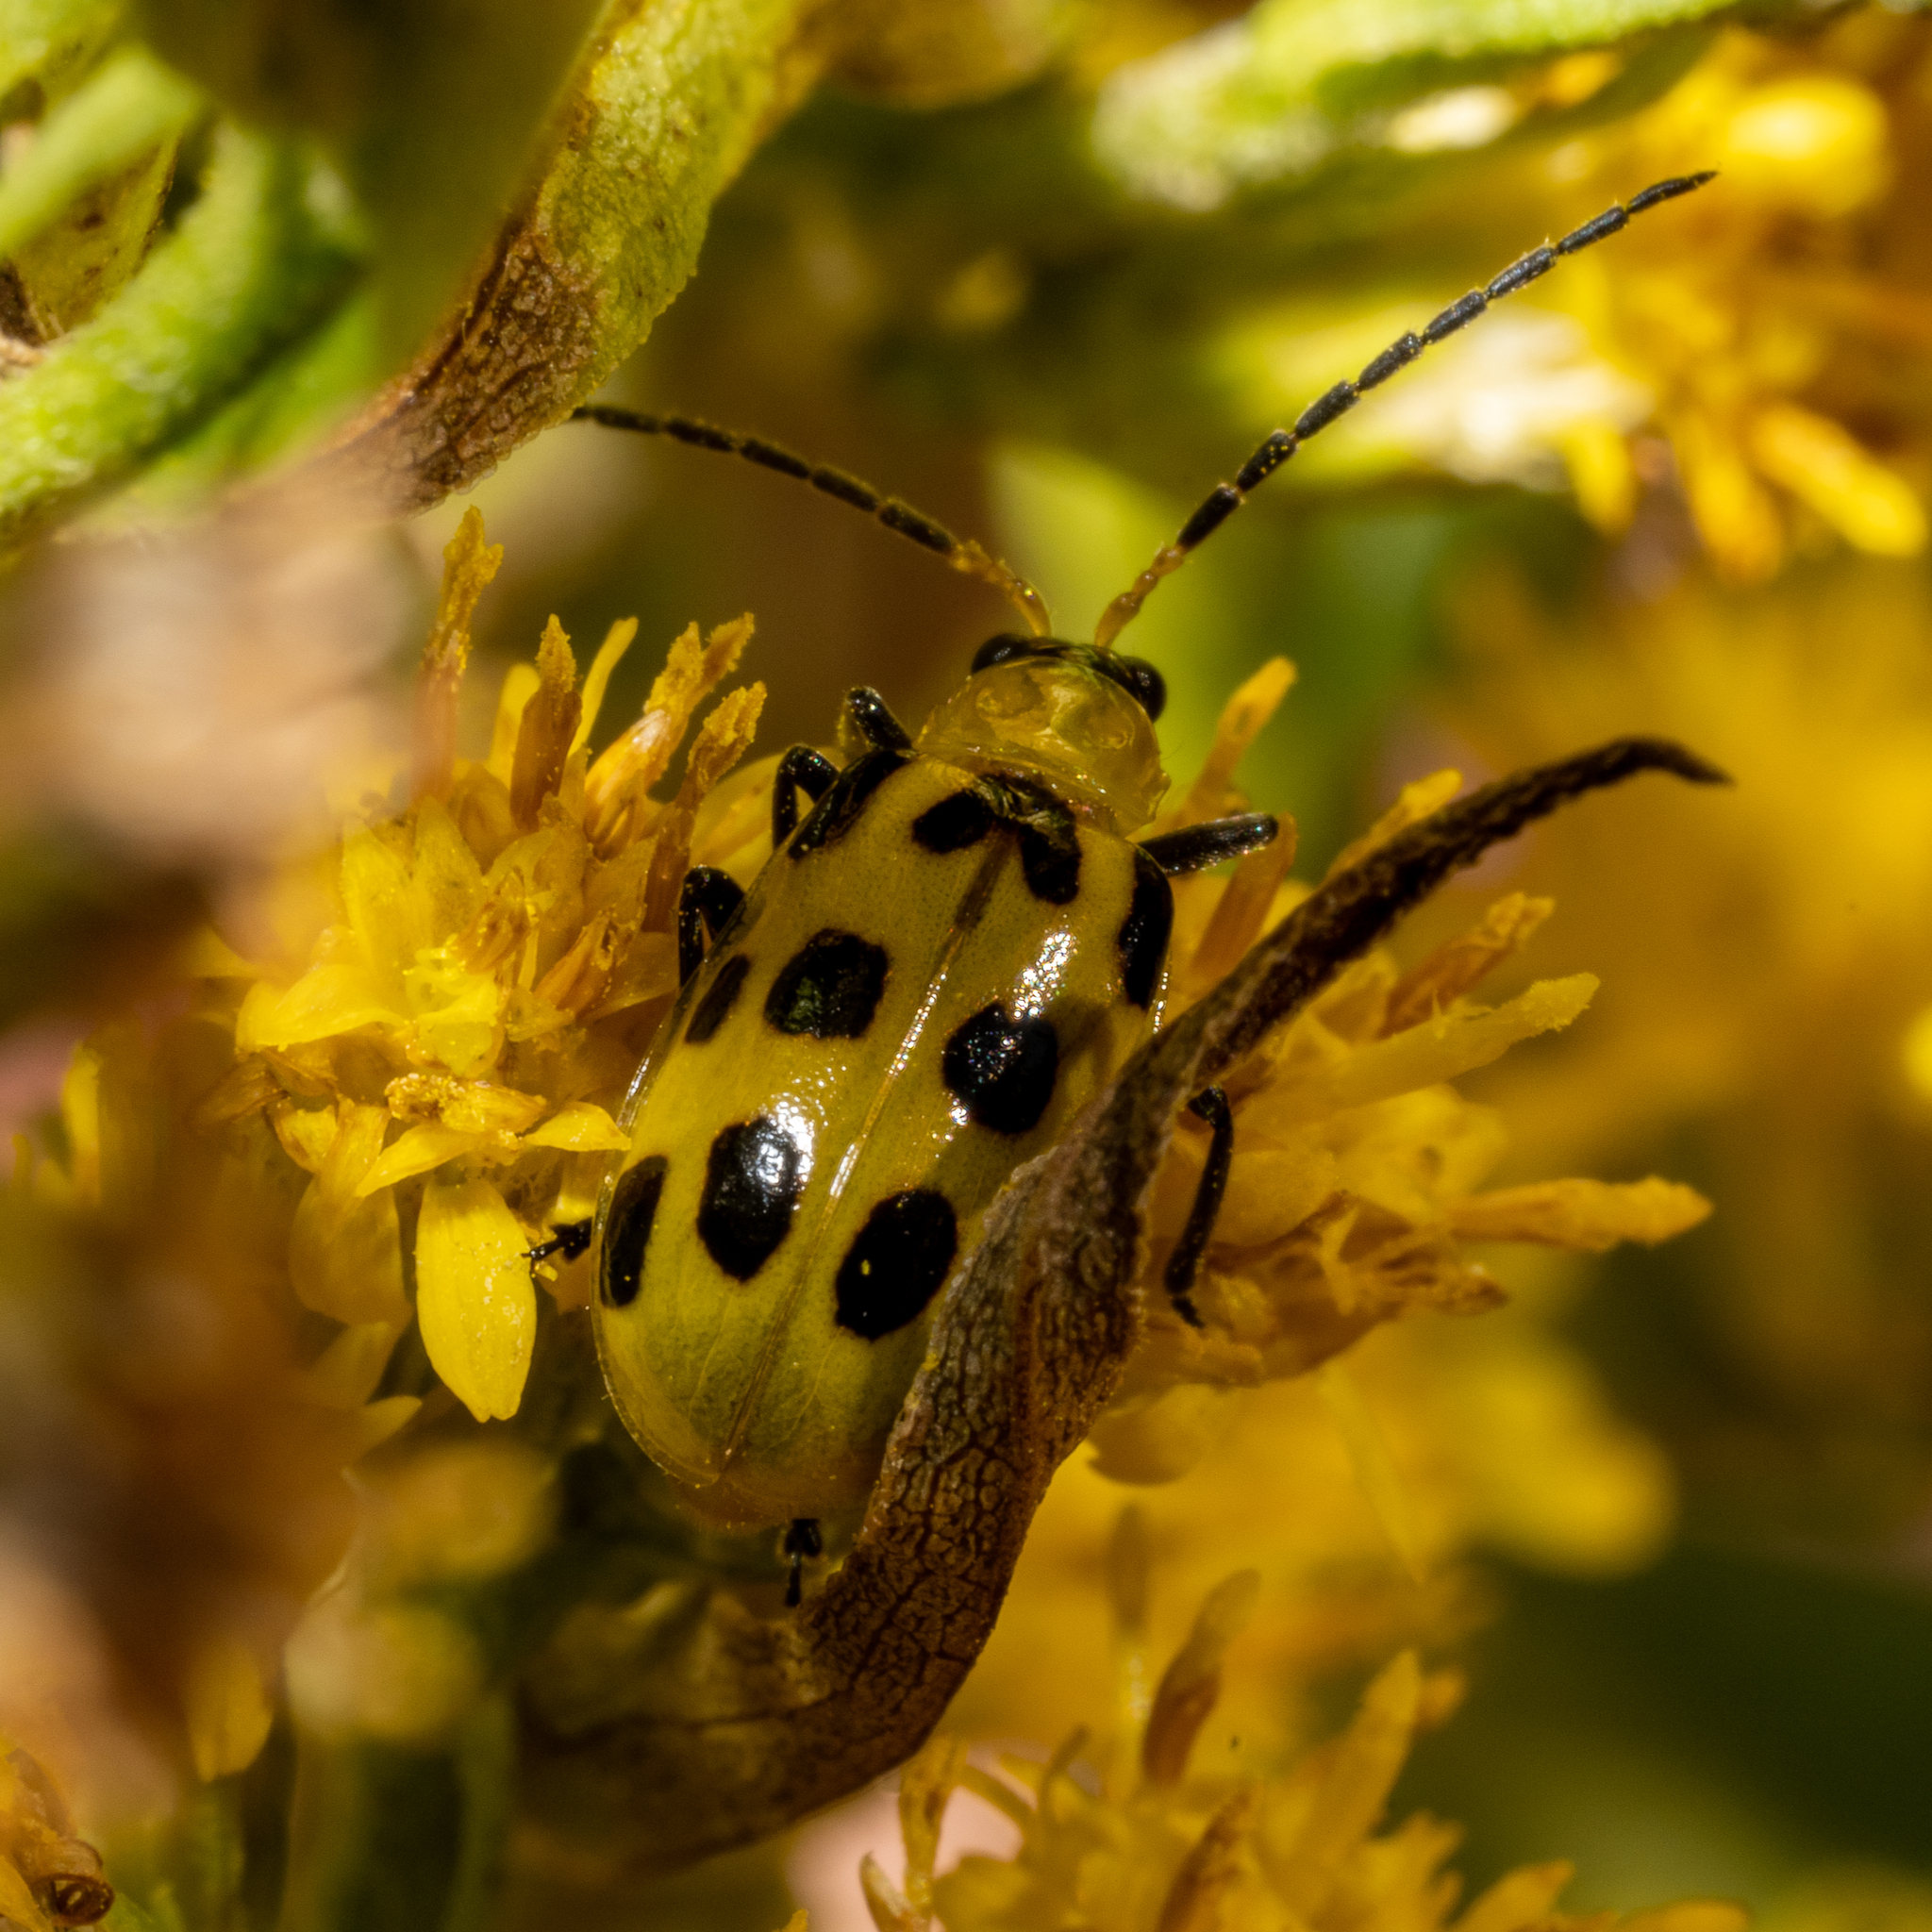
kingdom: Animalia
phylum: Arthropoda
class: Insecta
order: Coleoptera
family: Chrysomelidae
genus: Diabrotica
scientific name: Diabrotica undecimpunctata
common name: Spotted cucumber beetle
